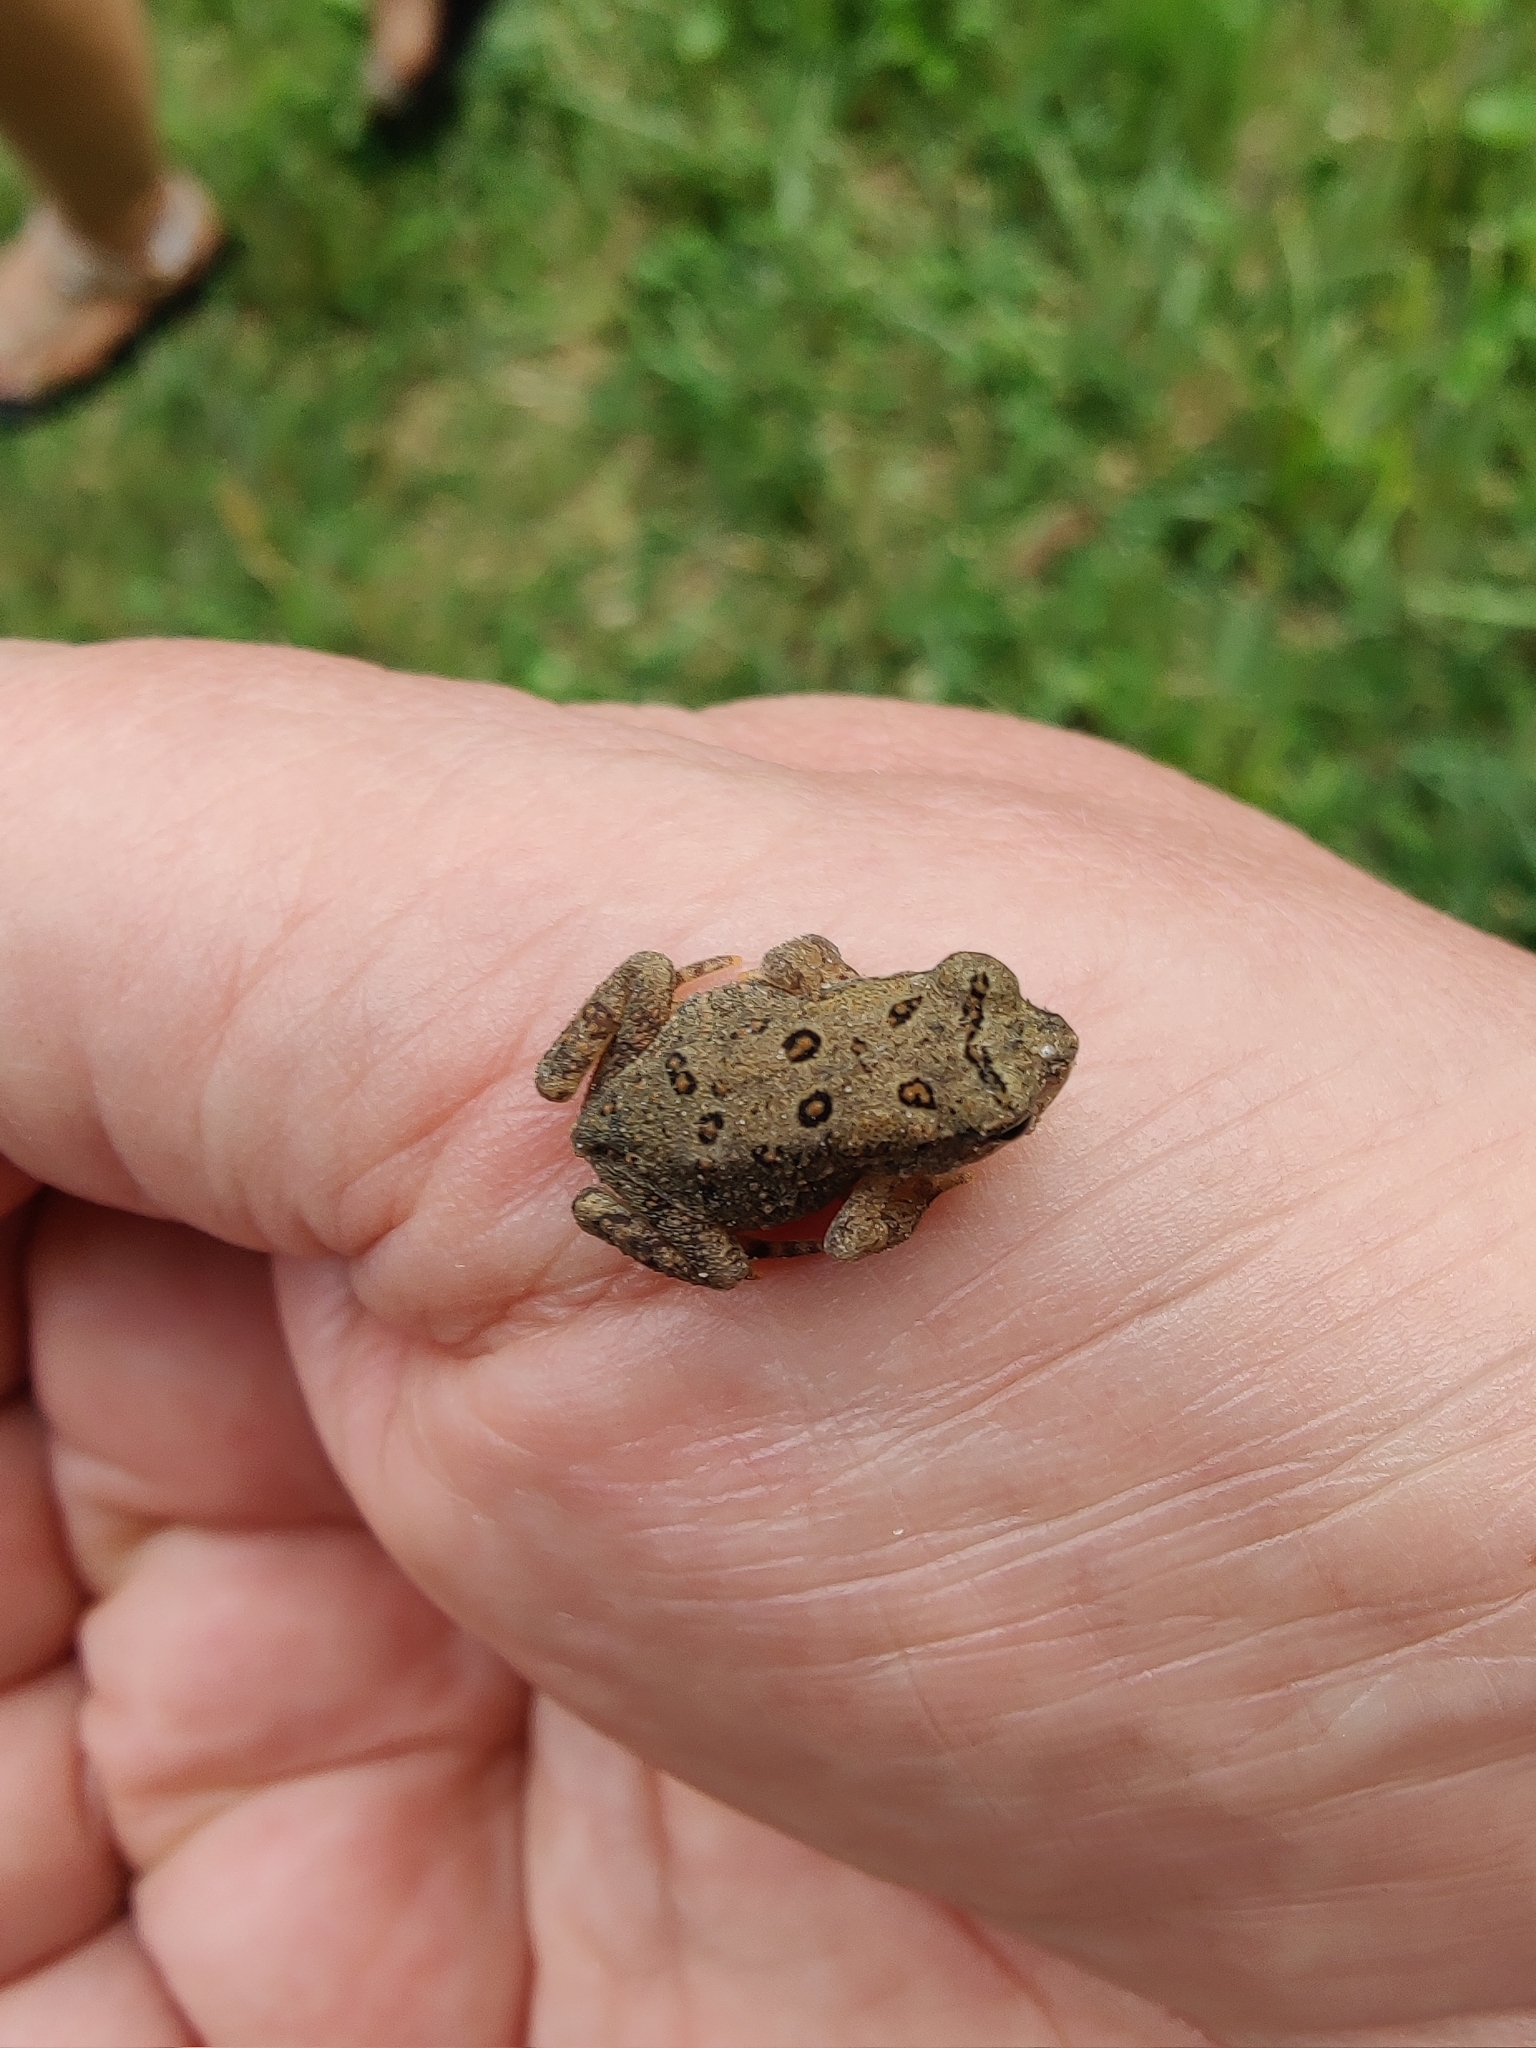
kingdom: Animalia
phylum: Chordata
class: Amphibia
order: Anura
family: Bufonidae
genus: Anaxyrus
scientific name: Anaxyrus americanus
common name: American toad
